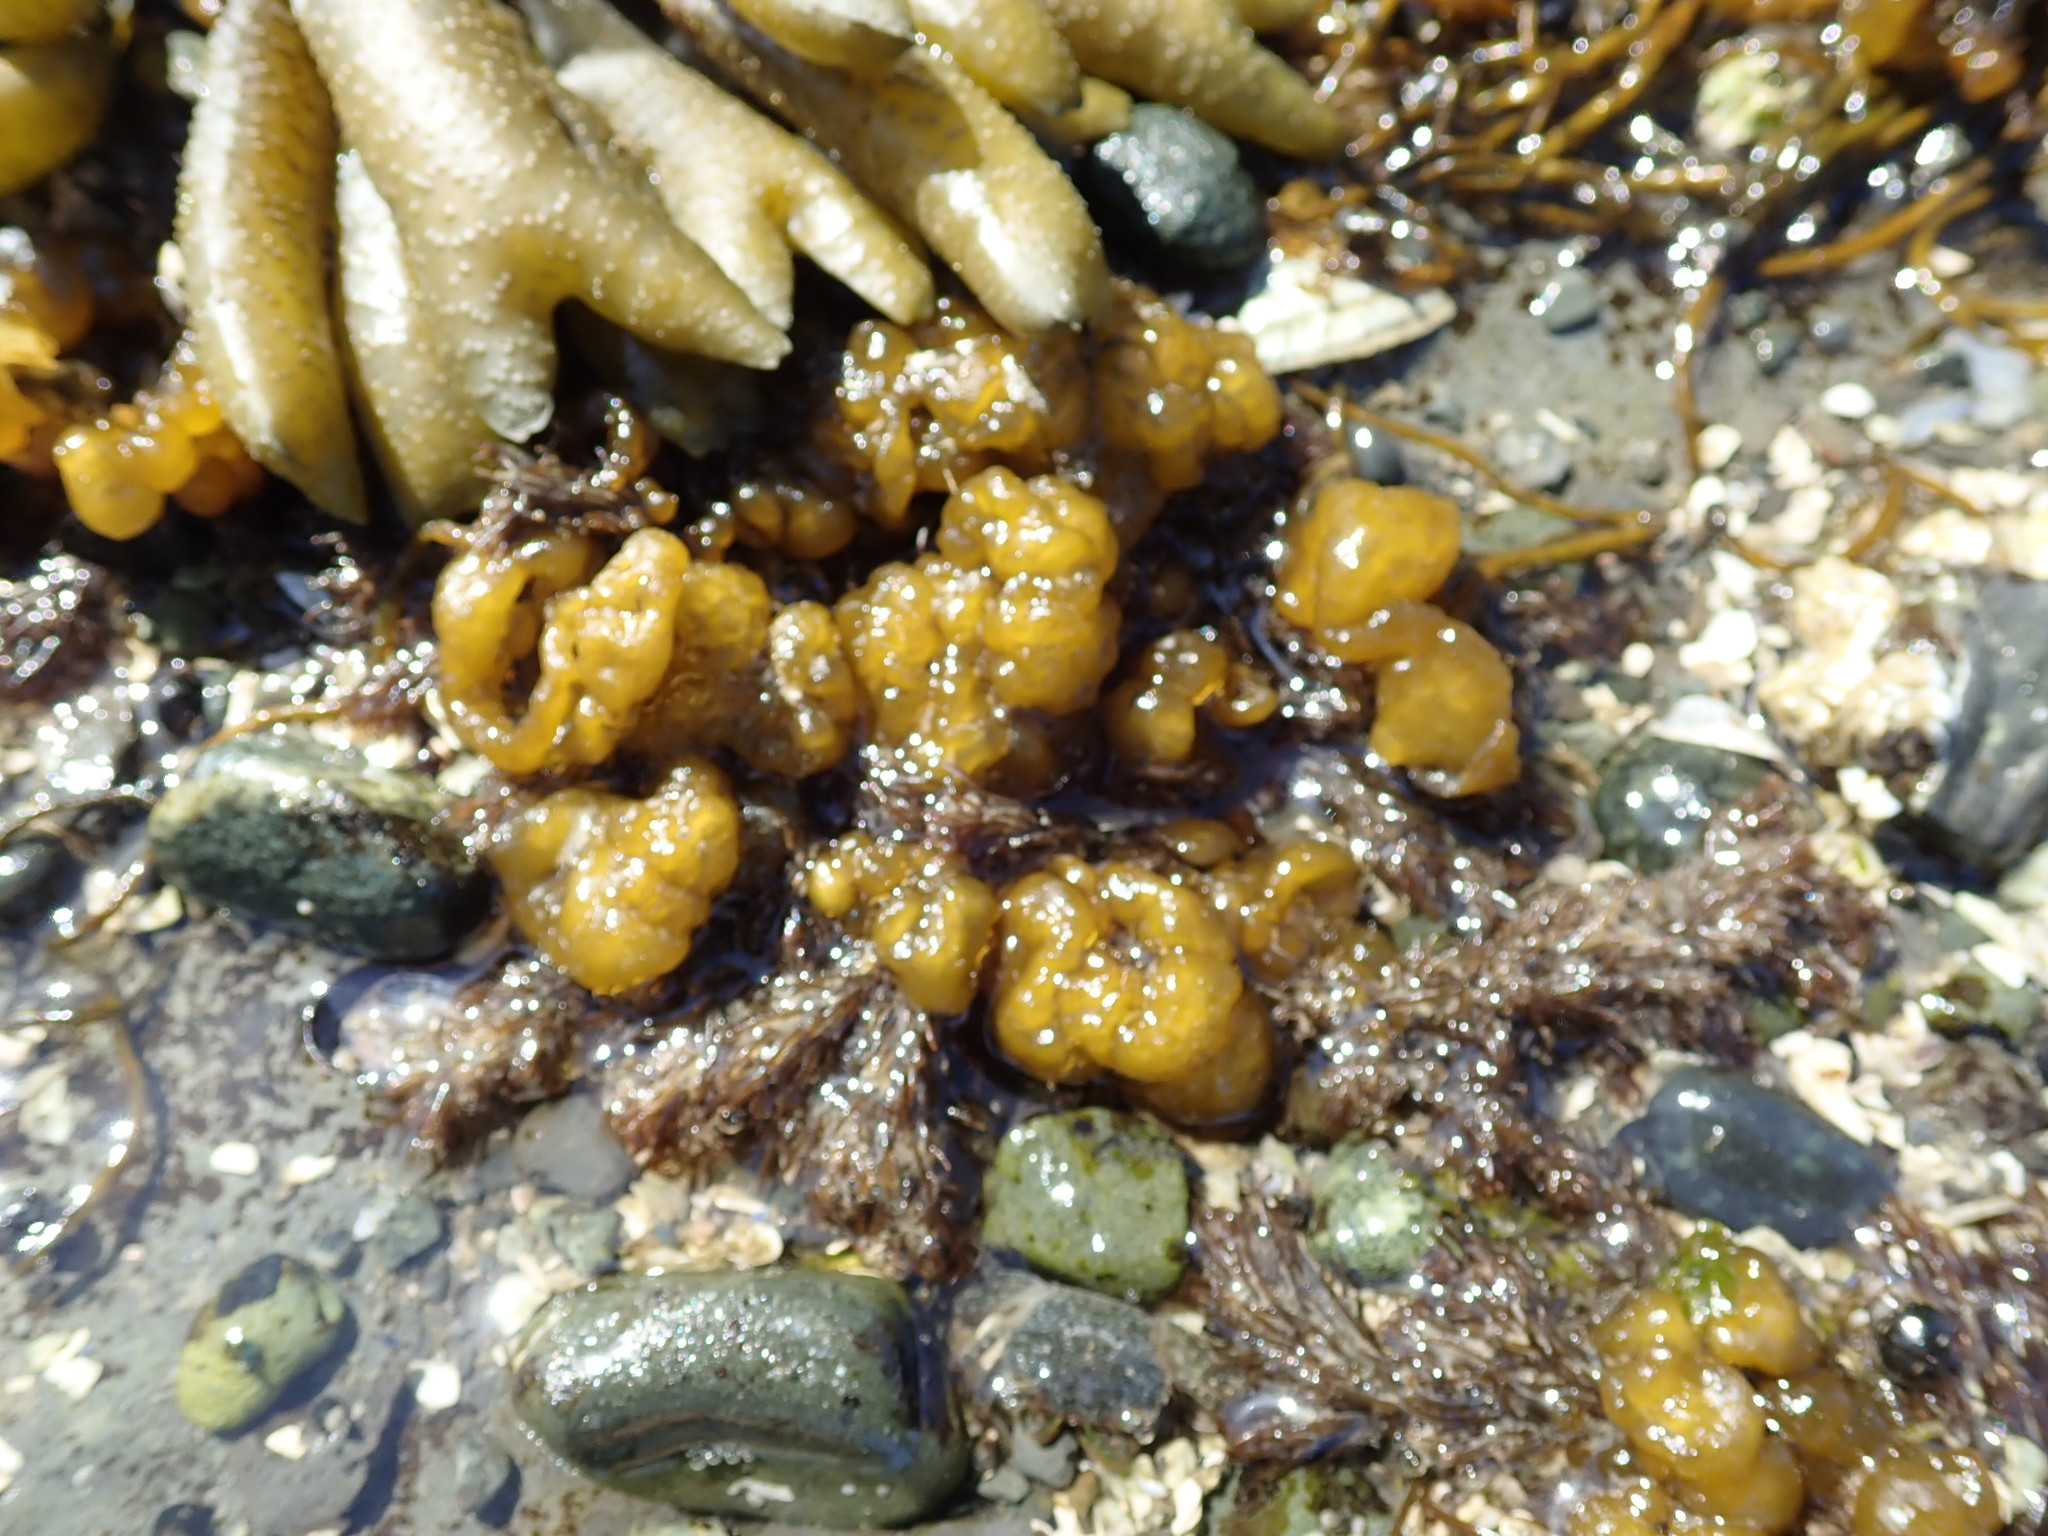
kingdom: Chromista
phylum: Ochrophyta
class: Phaeophyceae
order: Ectocarpales
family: Chordariaceae
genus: Leathesia
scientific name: Leathesia marina
